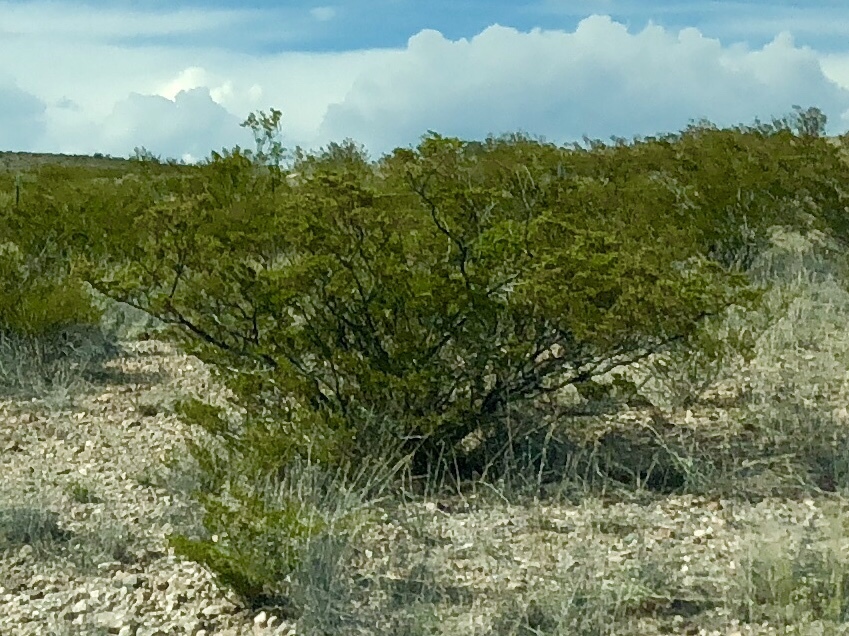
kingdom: Plantae
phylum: Tracheophyta
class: Magnoliopsida
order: Zygophyllales
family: Zygophyllaceae
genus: Larrea
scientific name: Larrea tridentata
